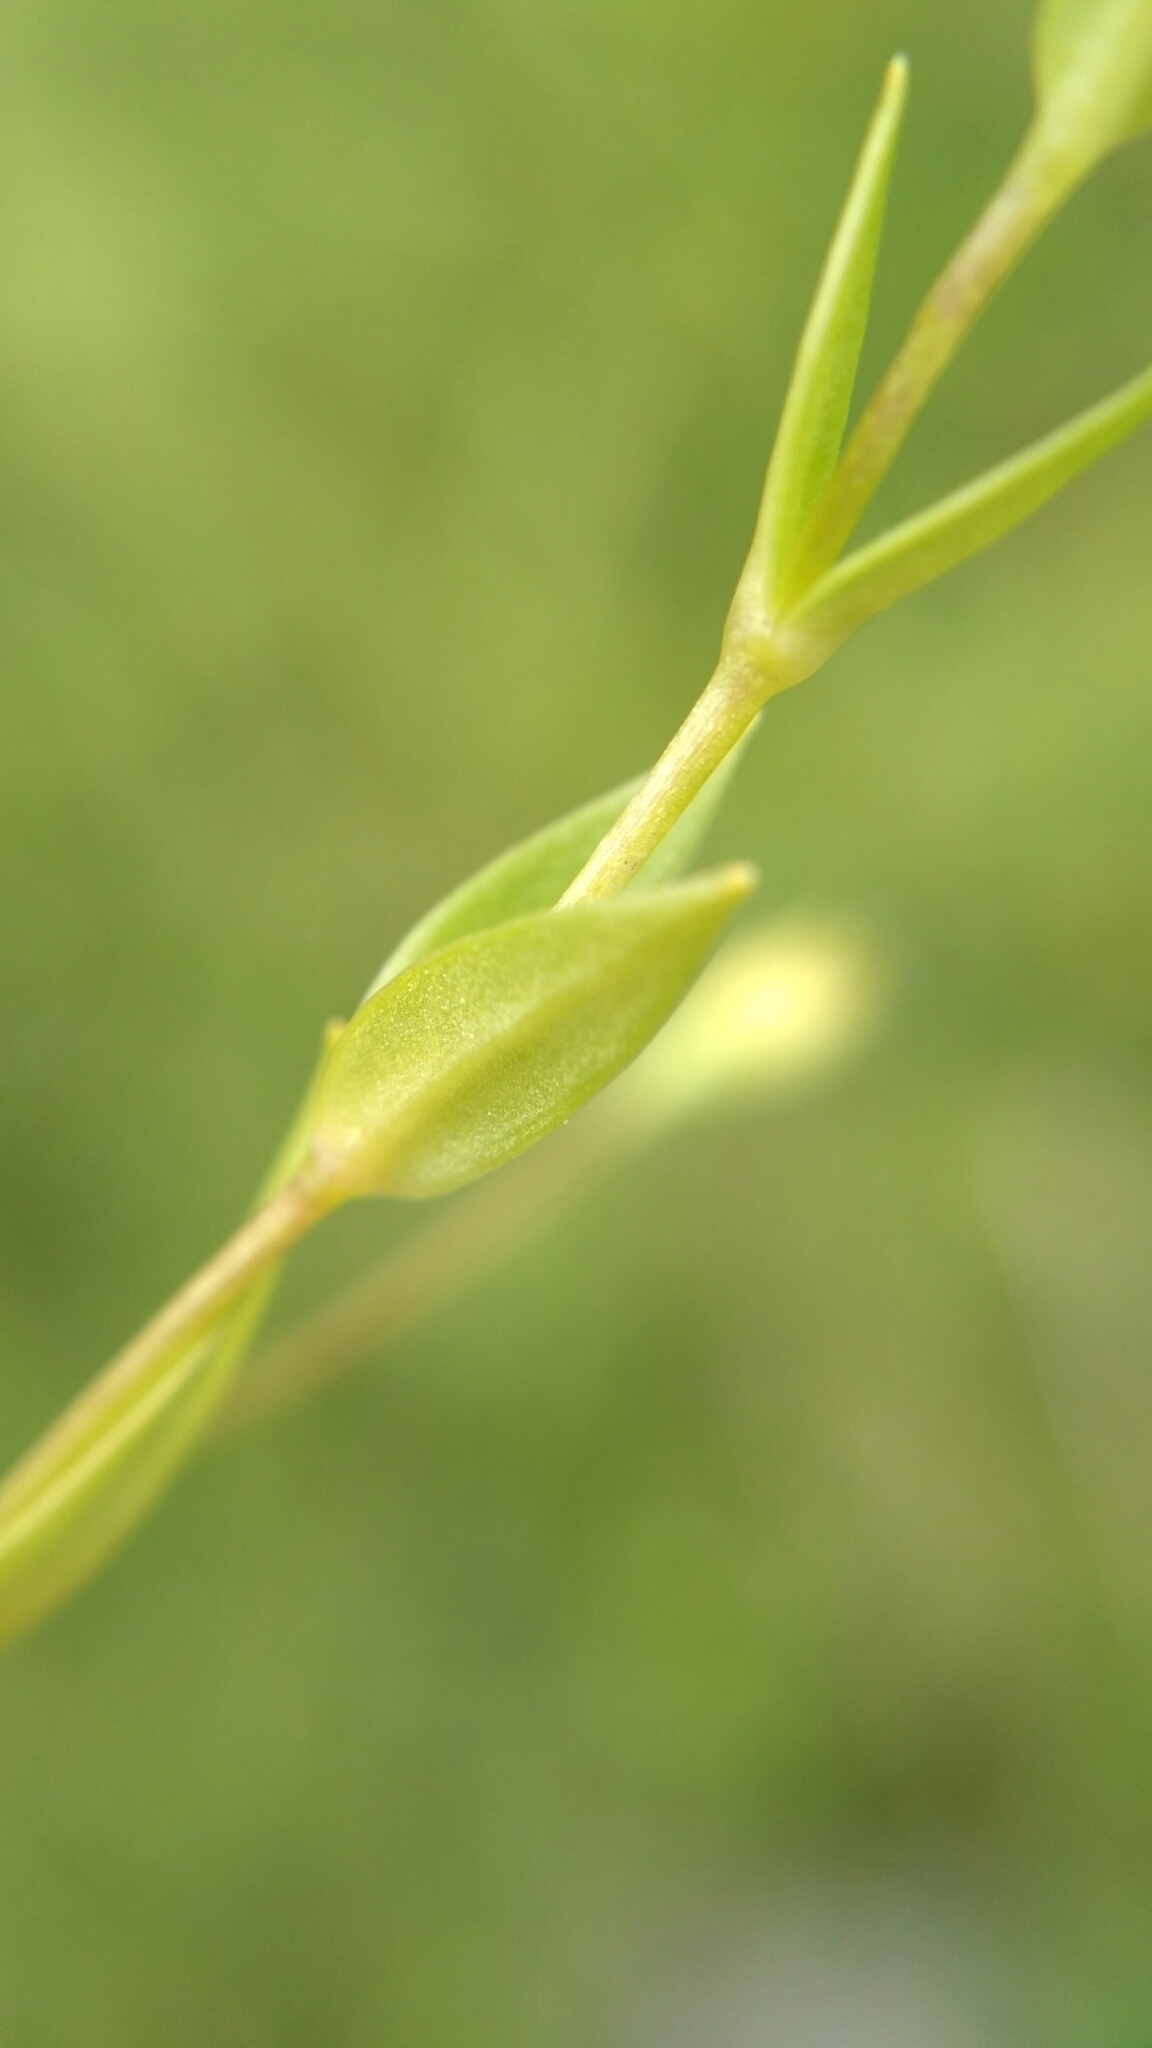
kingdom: Plantae
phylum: Tracheophyta
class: Magnoliopsida
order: Caryophyllales
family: Caryophyllaceae
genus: Stellaria
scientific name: Stellaria crassifolia
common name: Fleshy starwort
